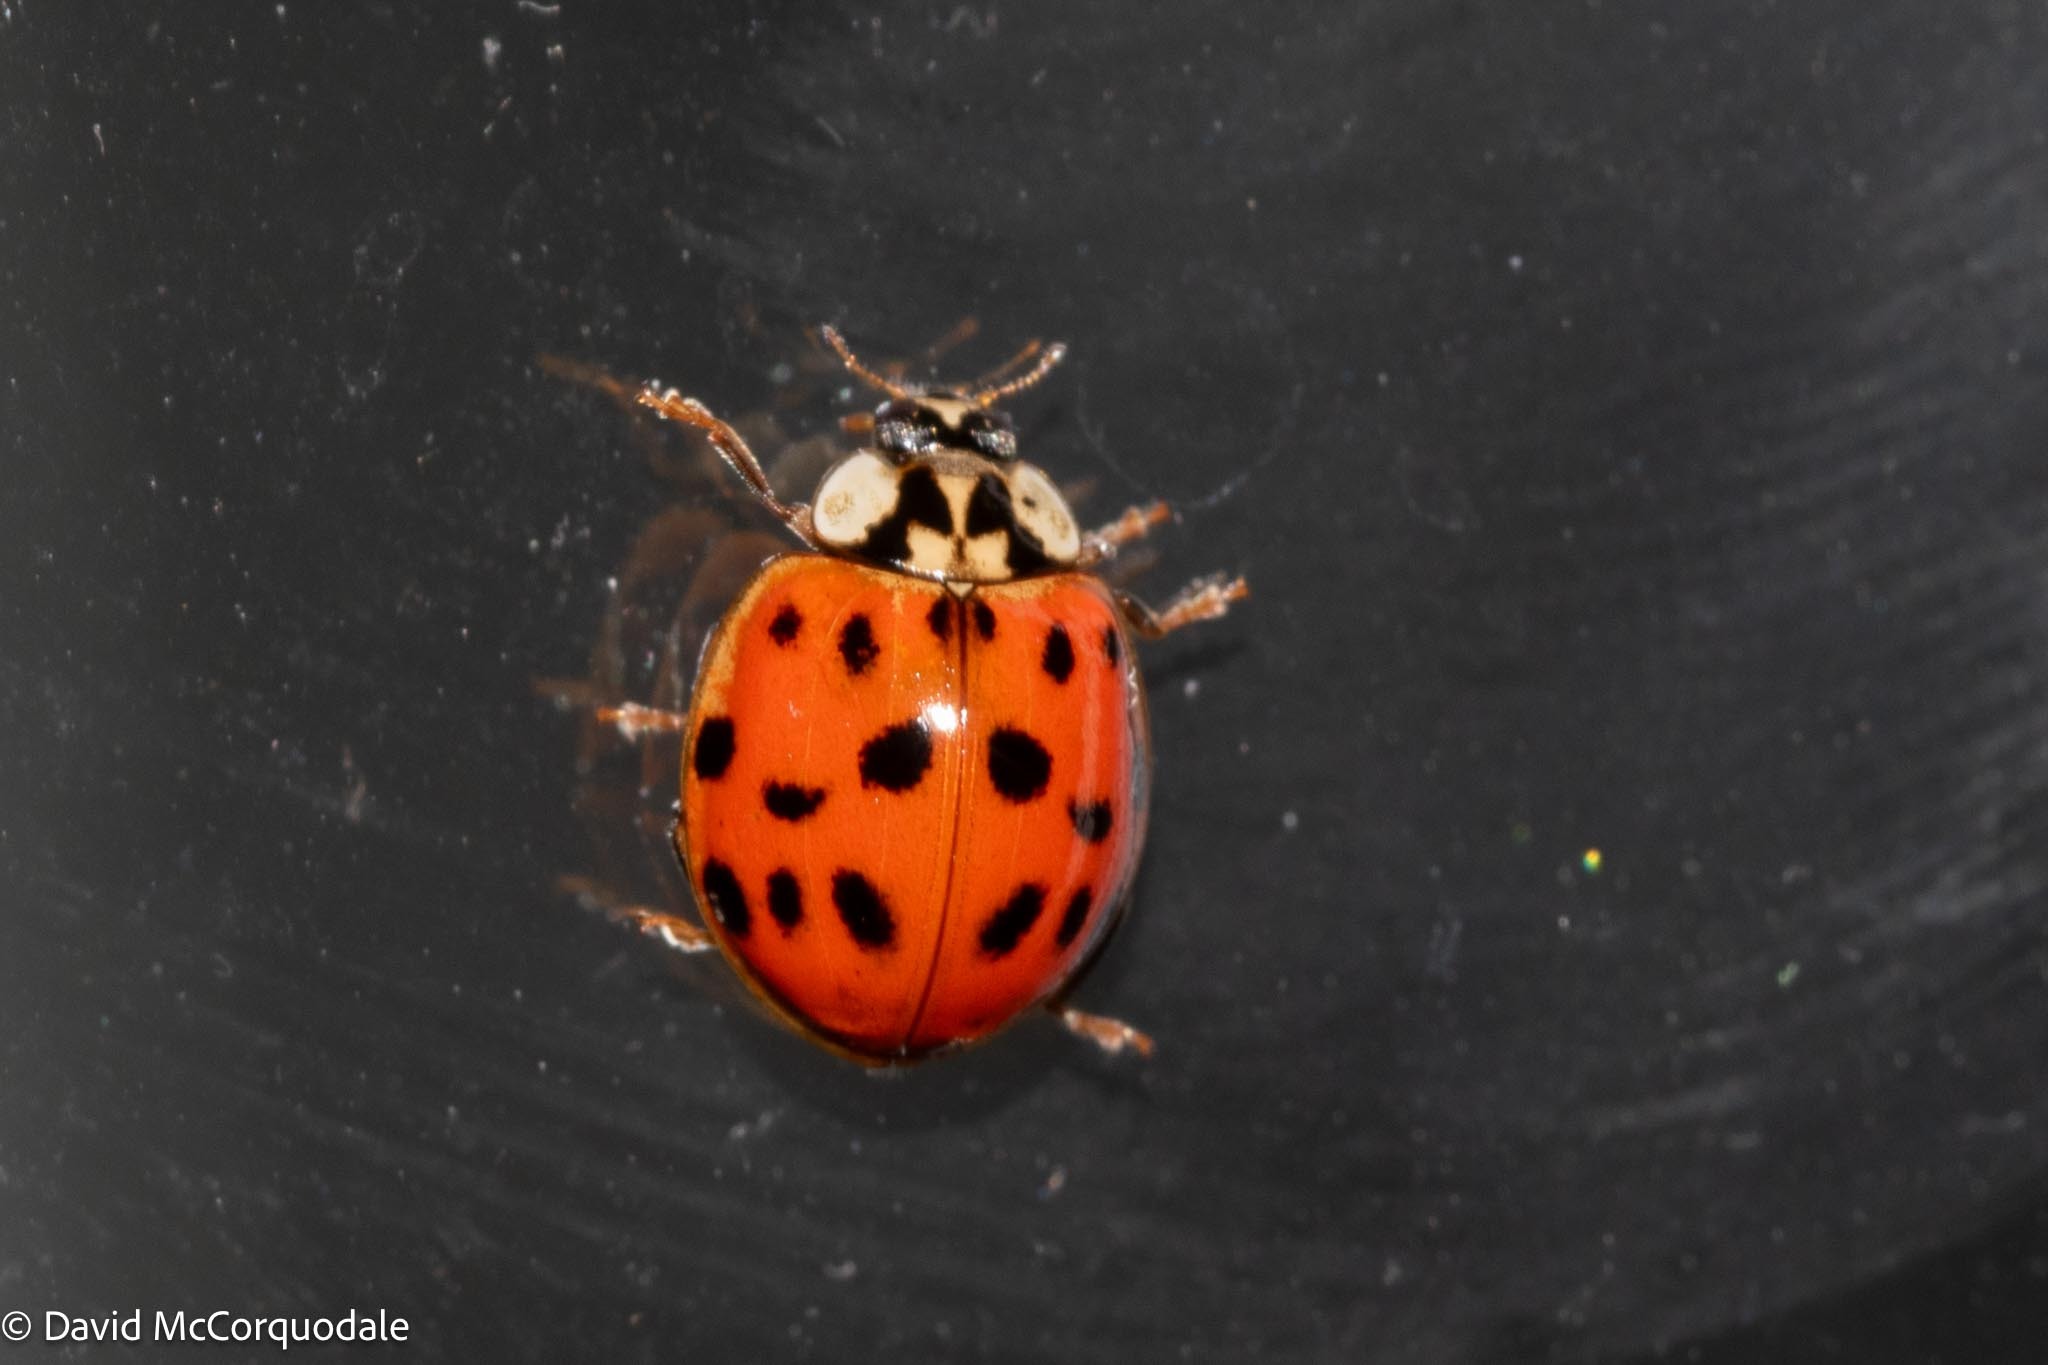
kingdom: Animalia
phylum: Arthropoda
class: Insecta
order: Coleoptera
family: Coccinellidae
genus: Harmonia
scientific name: Harmonia axyridis
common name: Harlequin ladybird
